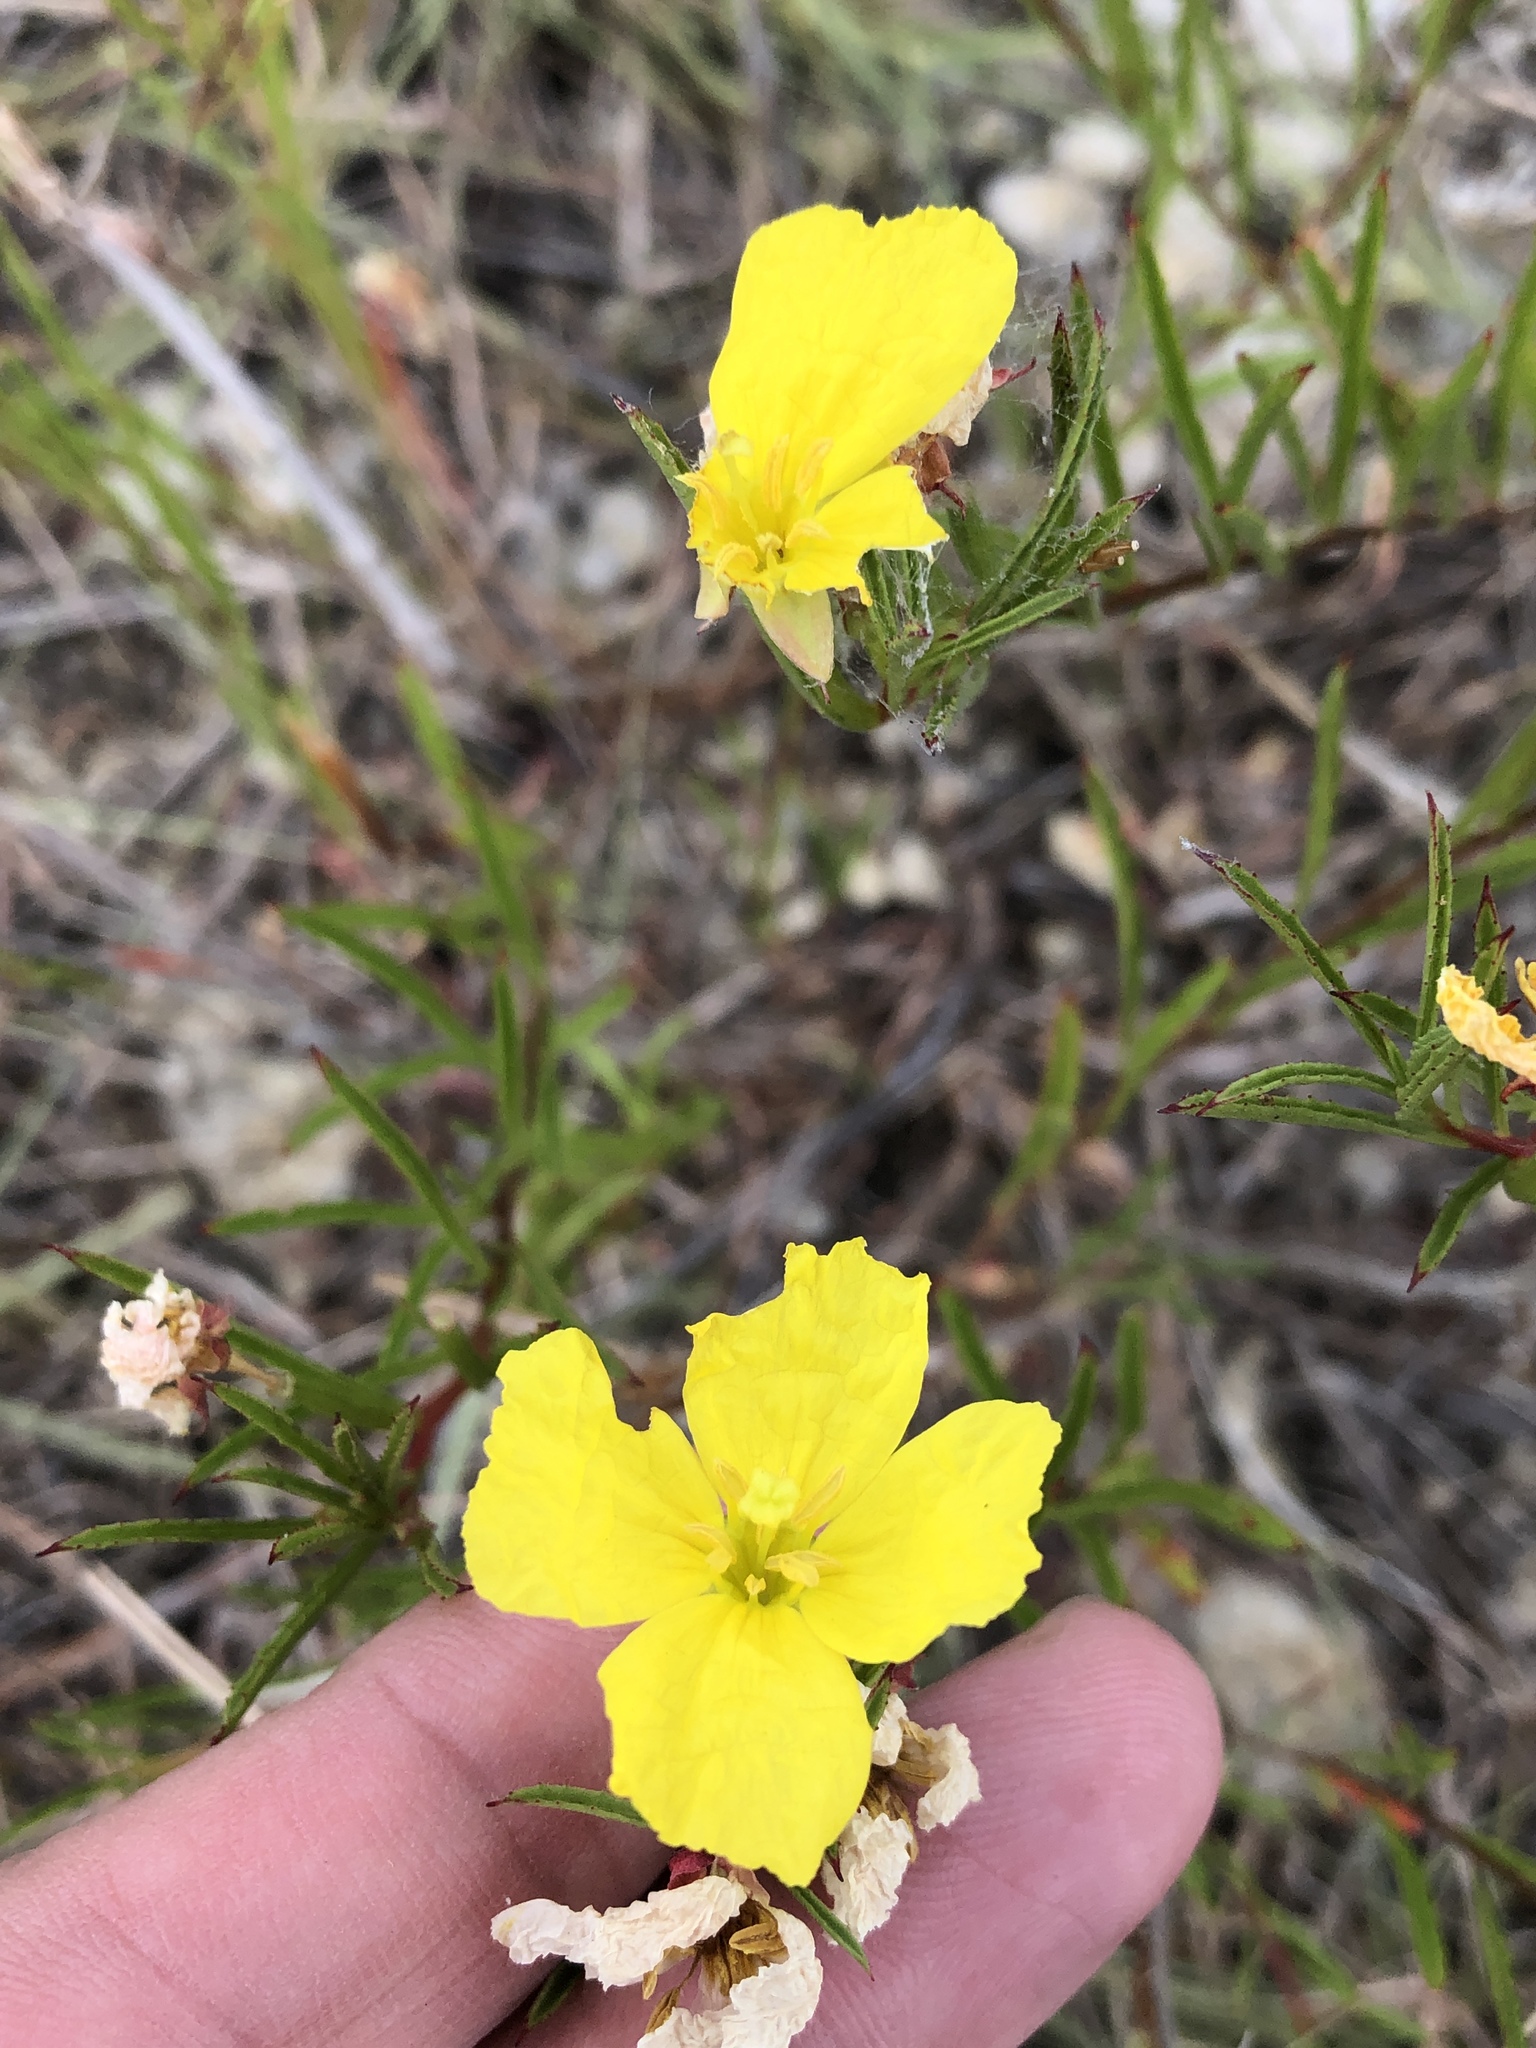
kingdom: Plantae
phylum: Tracheophyta
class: Magnoliopsida
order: Myrtales
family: Onagraceae
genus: Oenothera
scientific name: Oenothera
